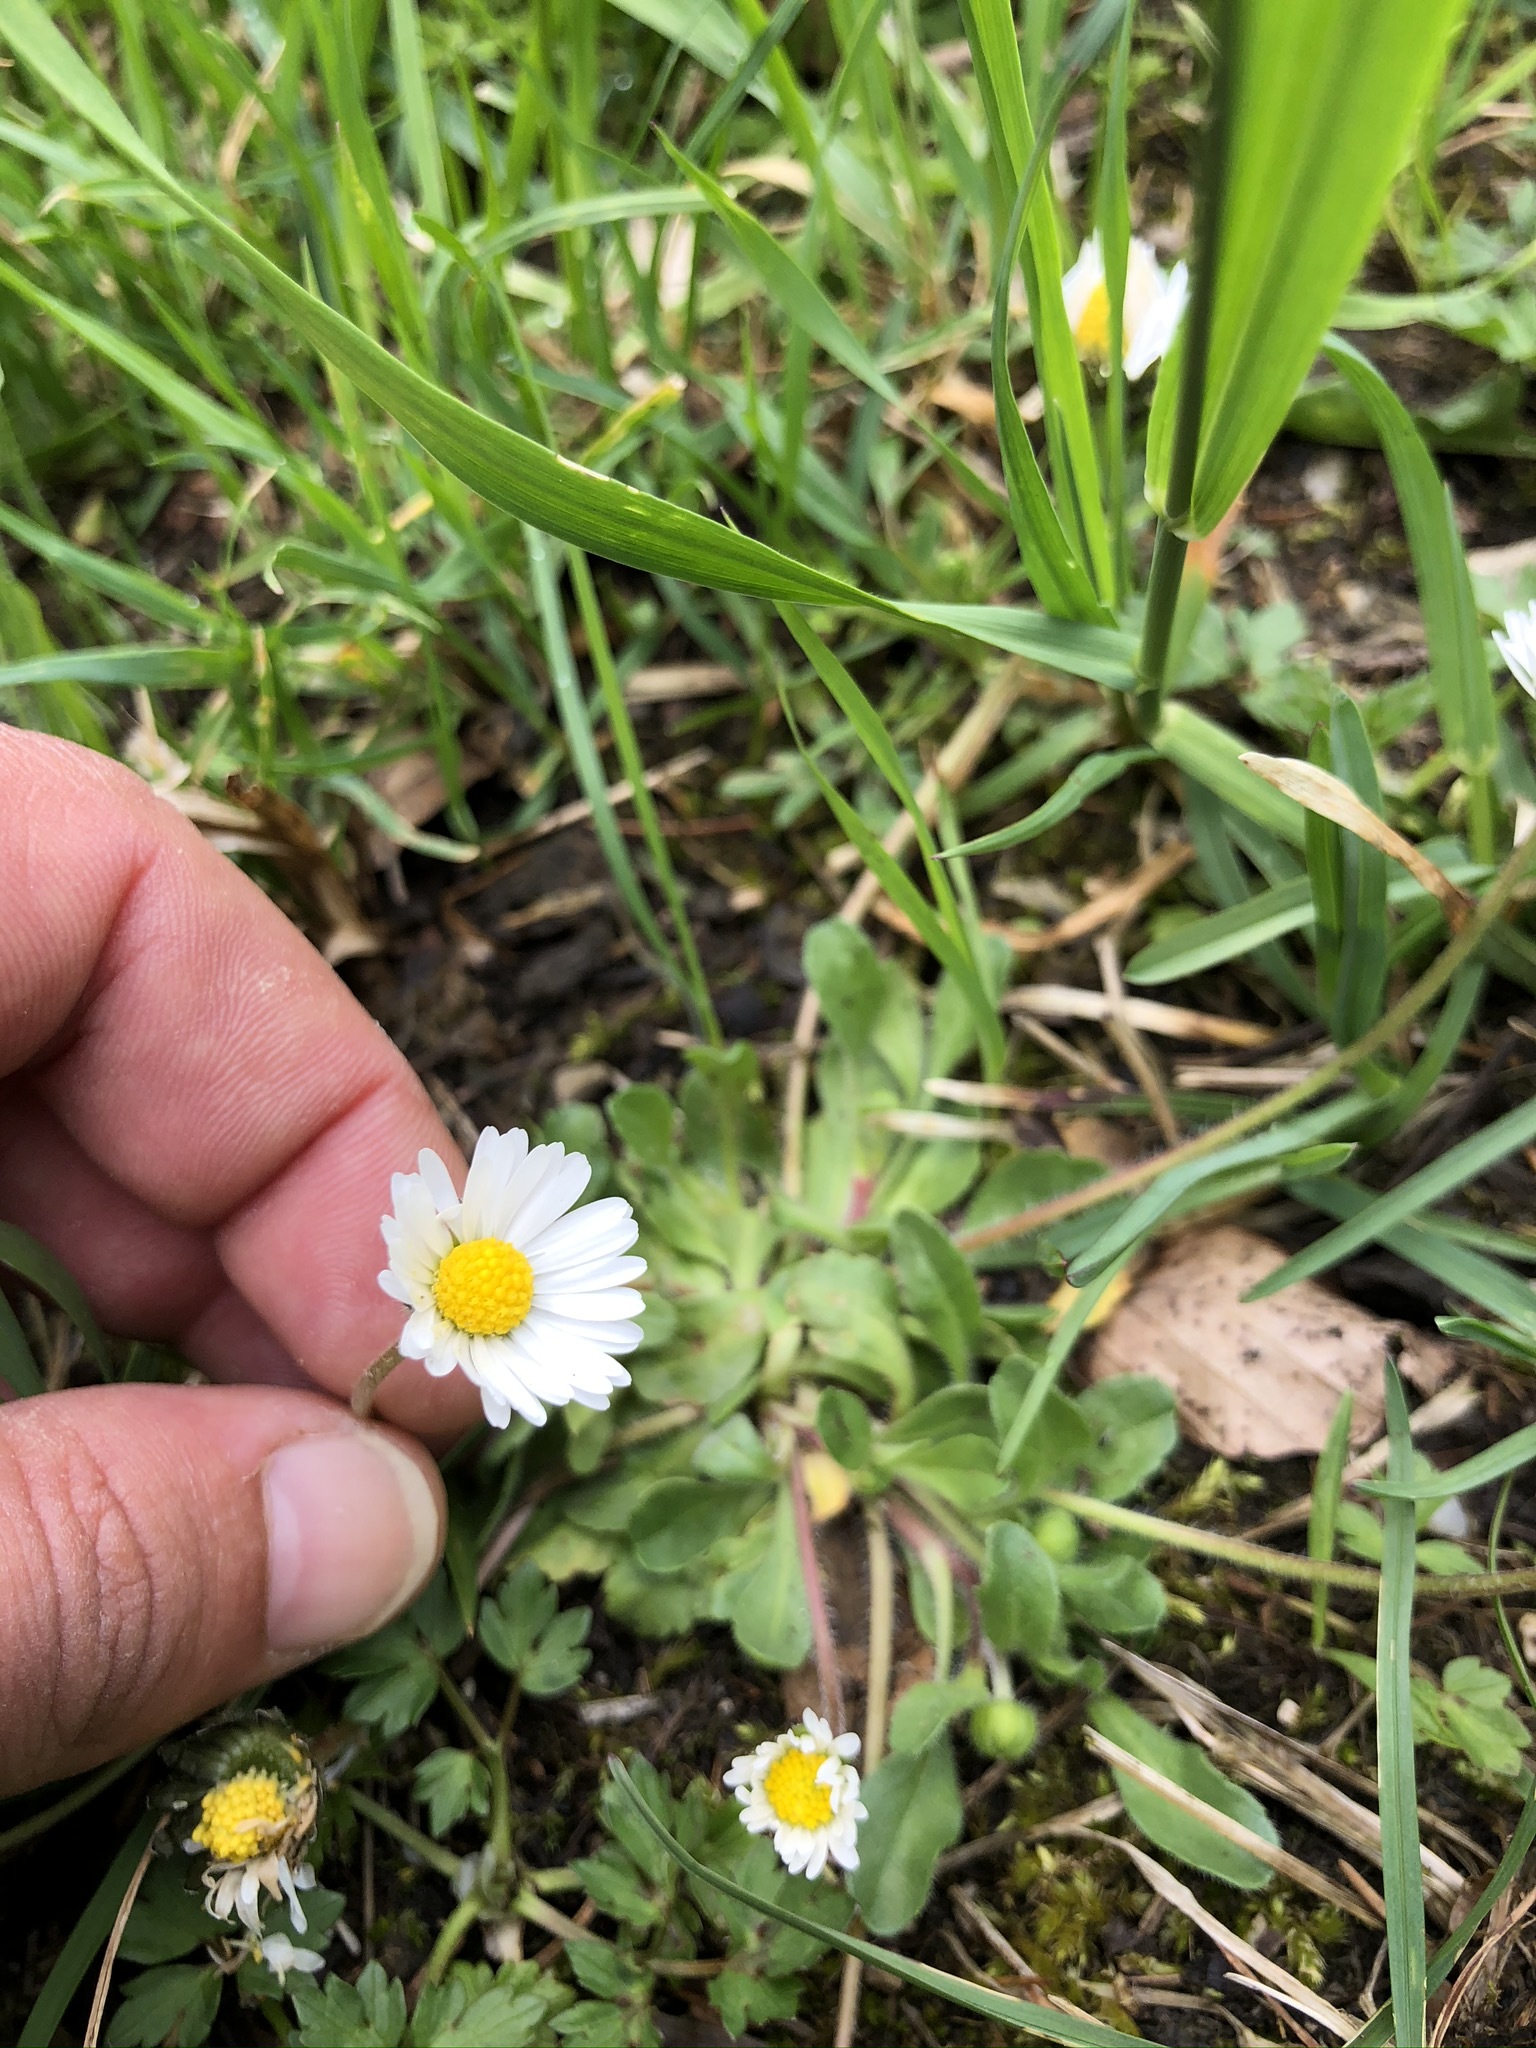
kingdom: Plantae
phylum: Tracheophyta
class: Magnoliopsida
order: Asterales
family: Asteraceae
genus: Bellis
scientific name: Bellis perennis
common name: Lawndaisy
